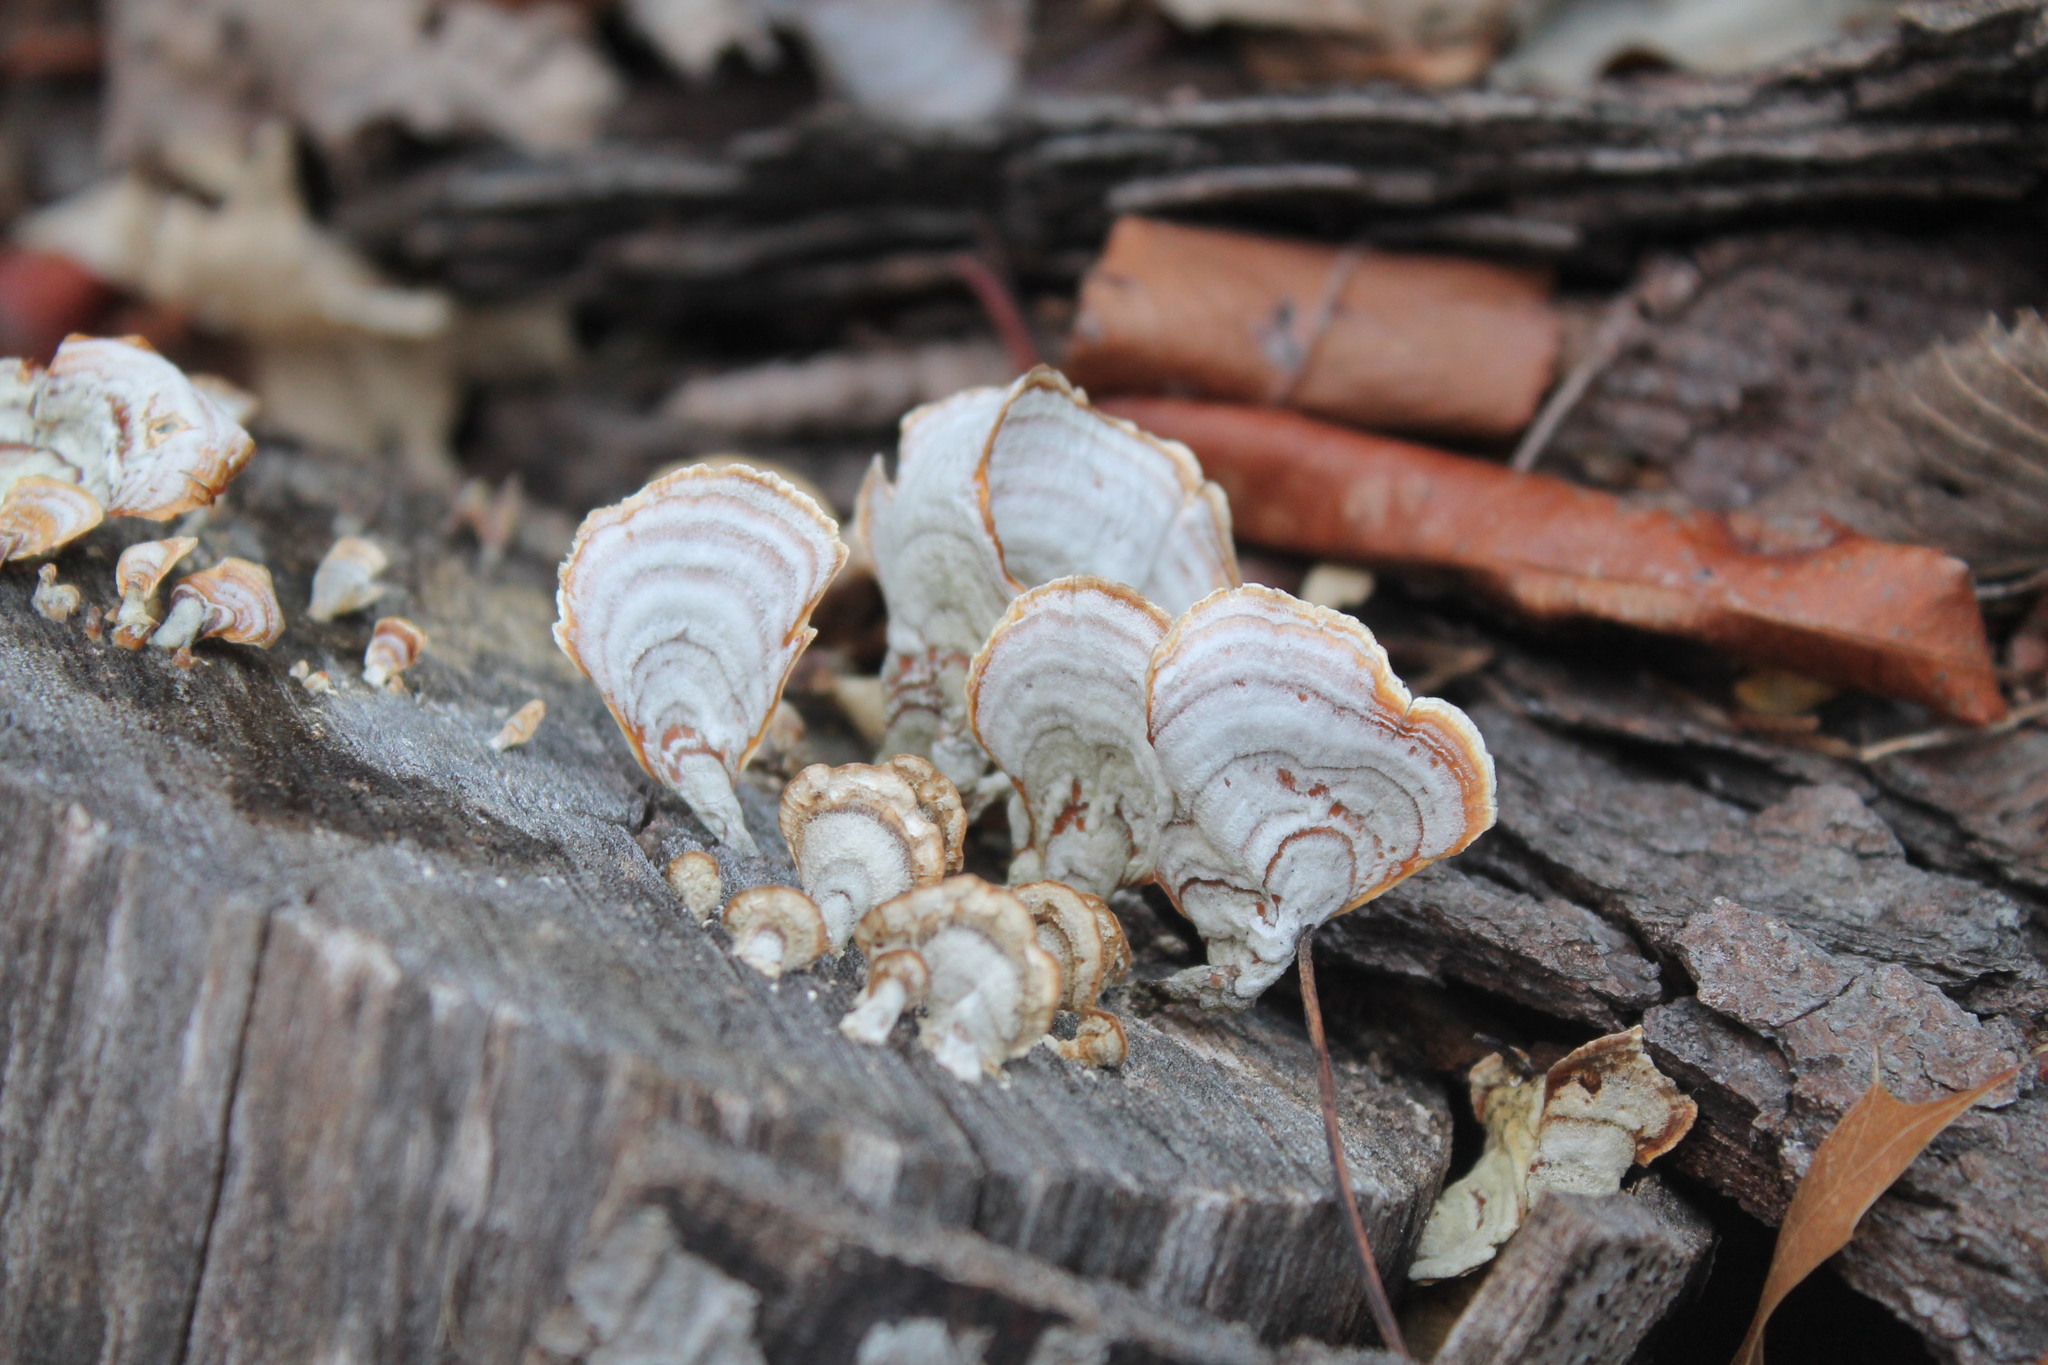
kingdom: Fungi
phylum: Basidiomycota
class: Agaricomycetes
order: Russulales
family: Stereaceae
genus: Stereum
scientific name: Stereum lobatum
